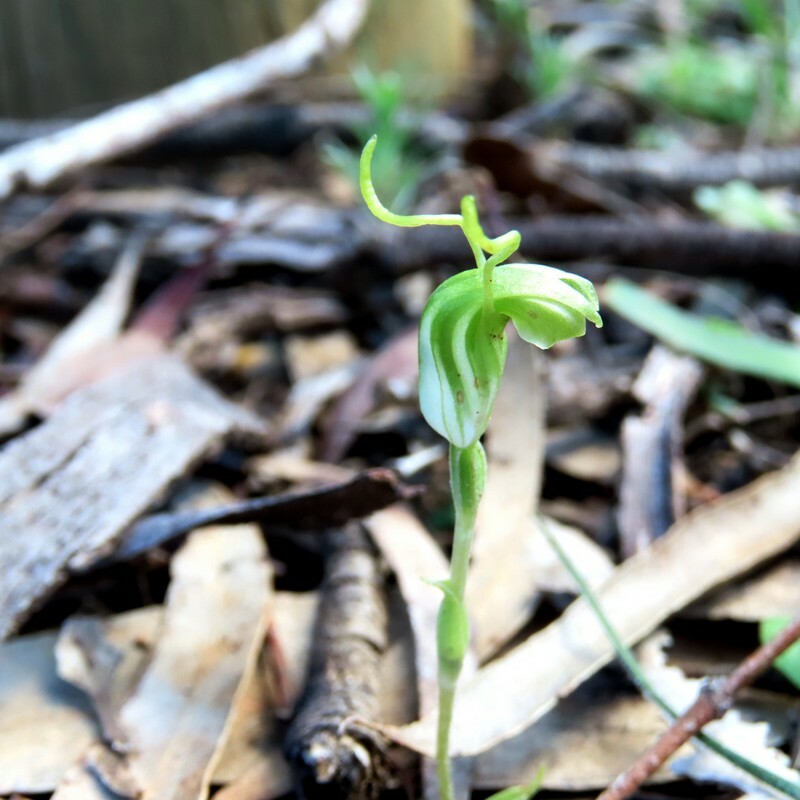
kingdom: Plantae
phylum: Tracheophyta
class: Liliopsida
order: Asparagales
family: Orchidaceae
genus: Pterostylis
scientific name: Pterostylis nana
